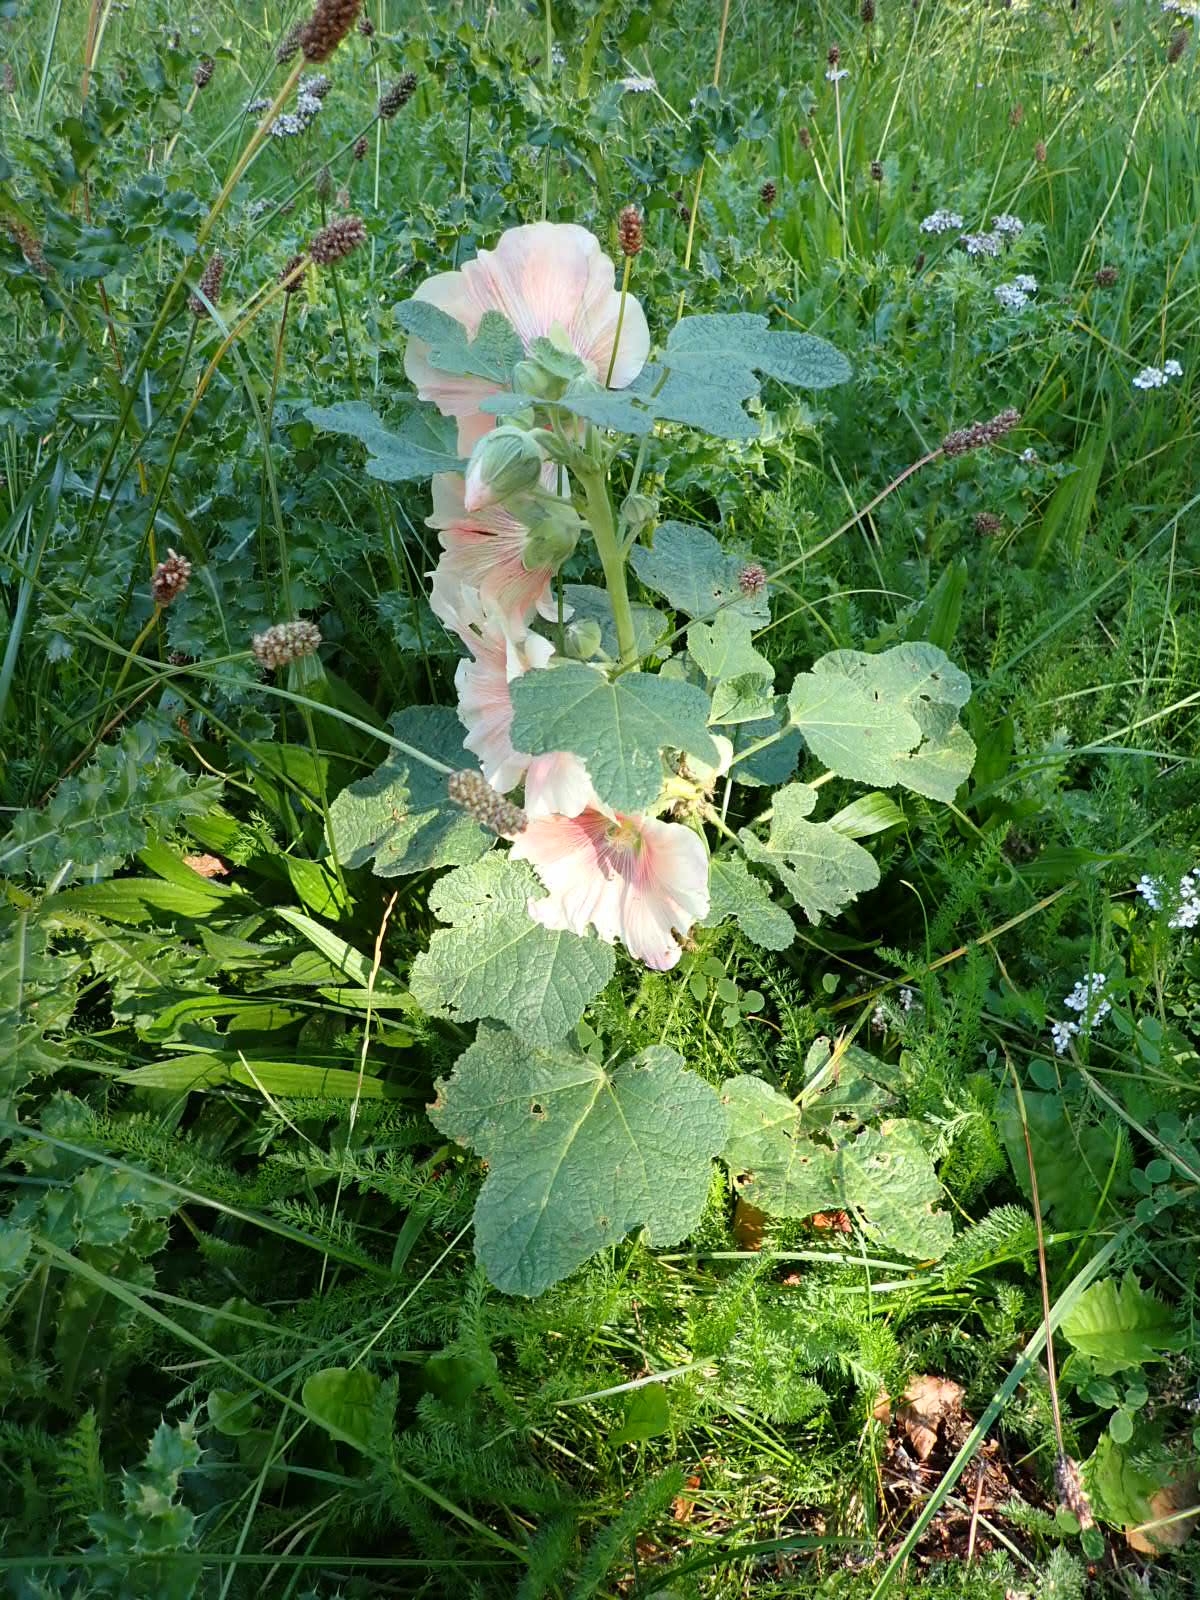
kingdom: Plantae
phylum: Tracheophyta
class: Magnoliopsida
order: Malvales
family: Malvaceae
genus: Alcea
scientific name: Alcea rosea
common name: Hollyhock
